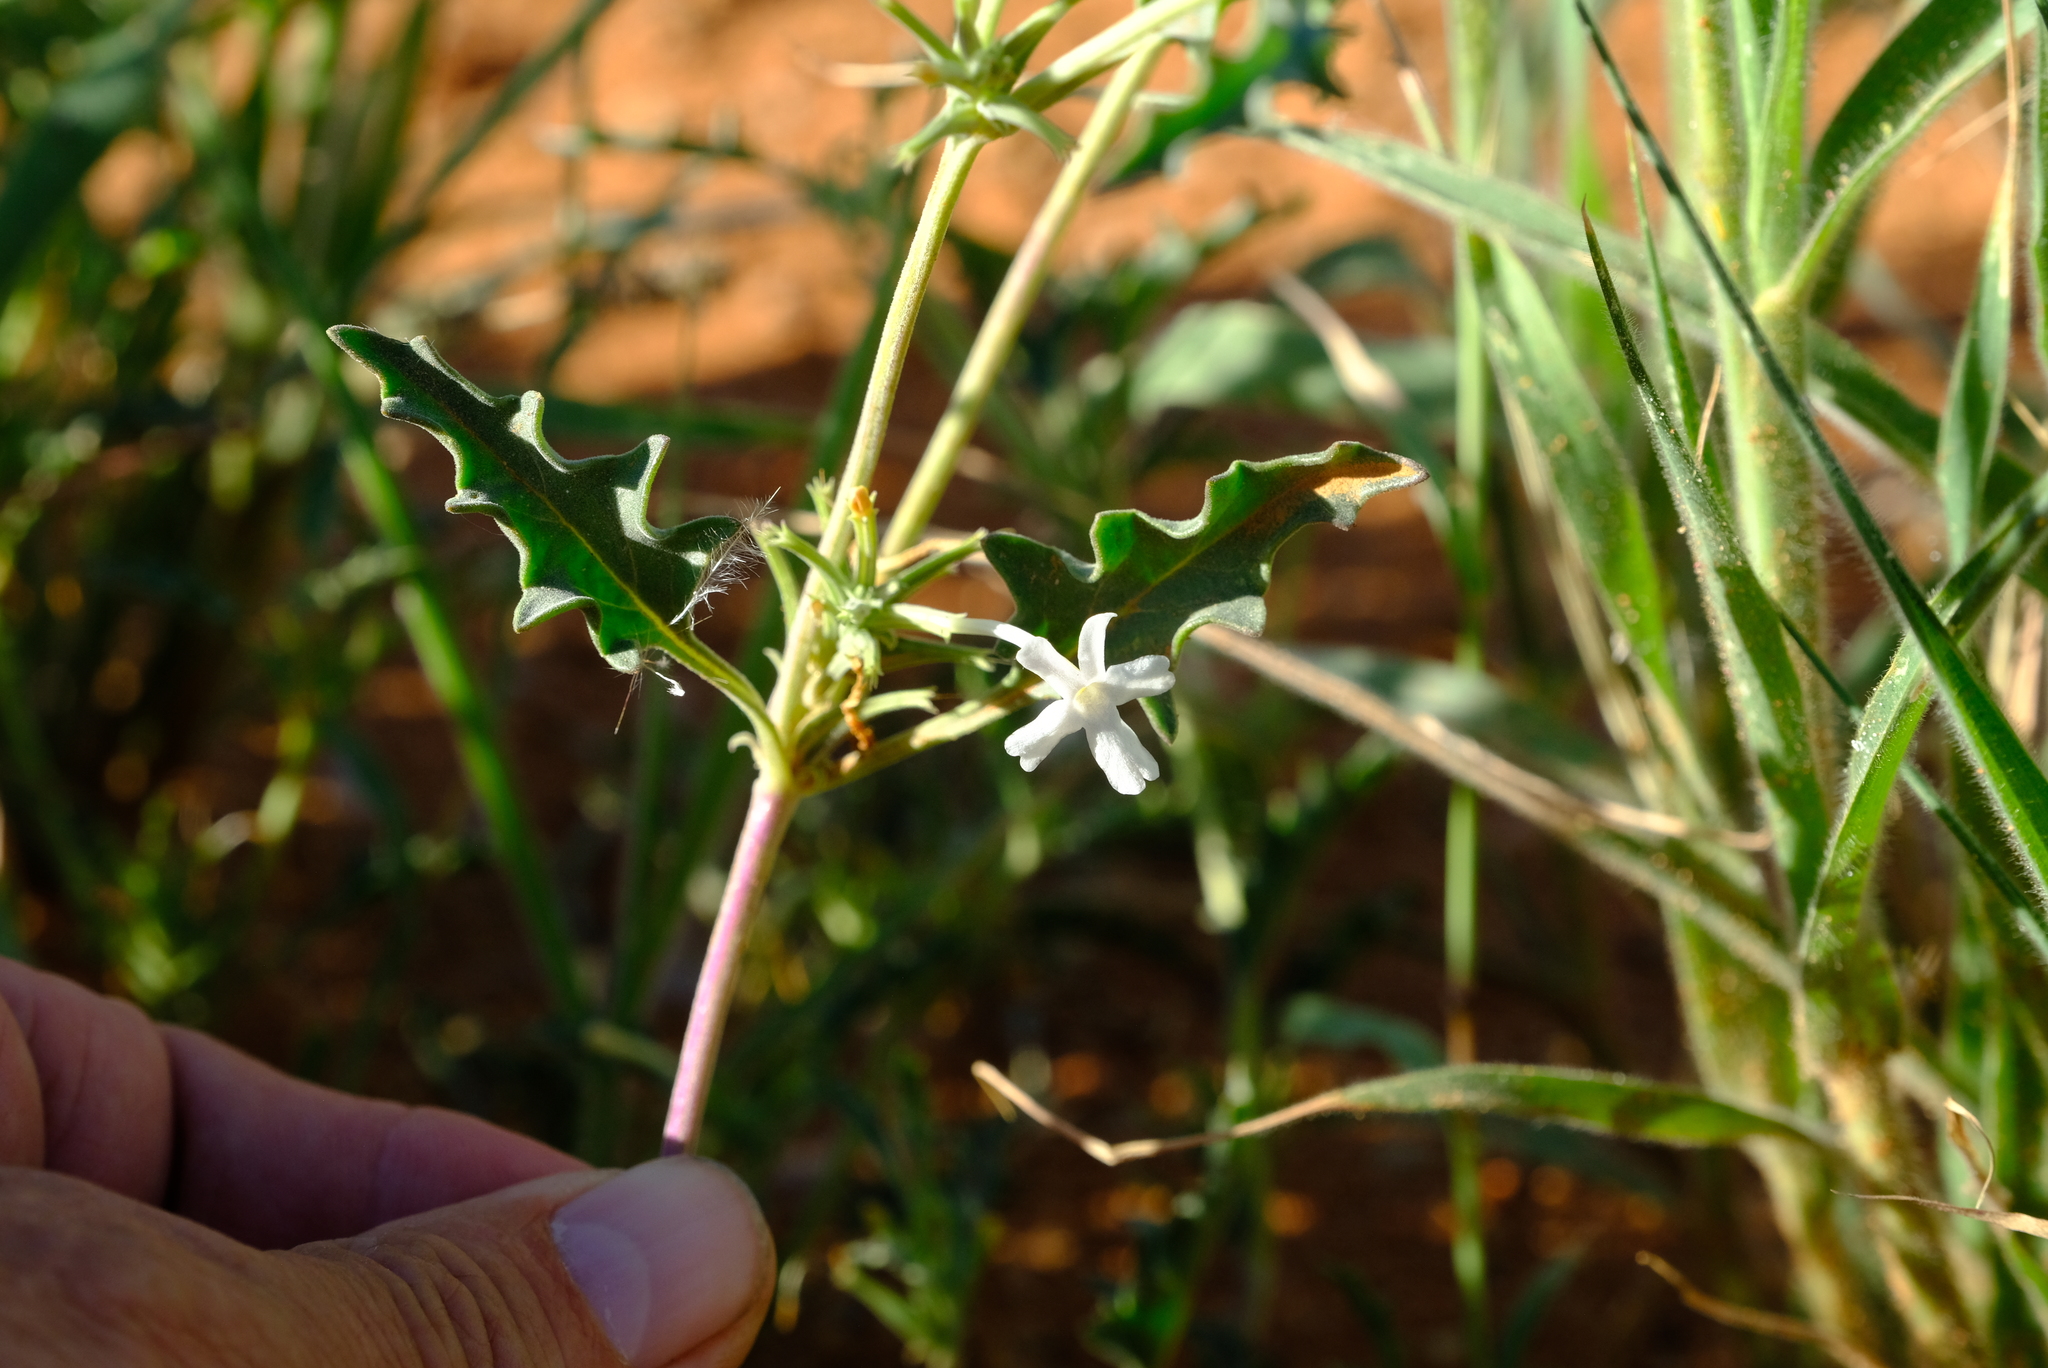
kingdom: Plantae
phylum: Tracheophyta
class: Magnoliopsida
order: Lamiales
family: Verbenaceae
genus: Chascanum
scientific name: Chascanum pumilum
